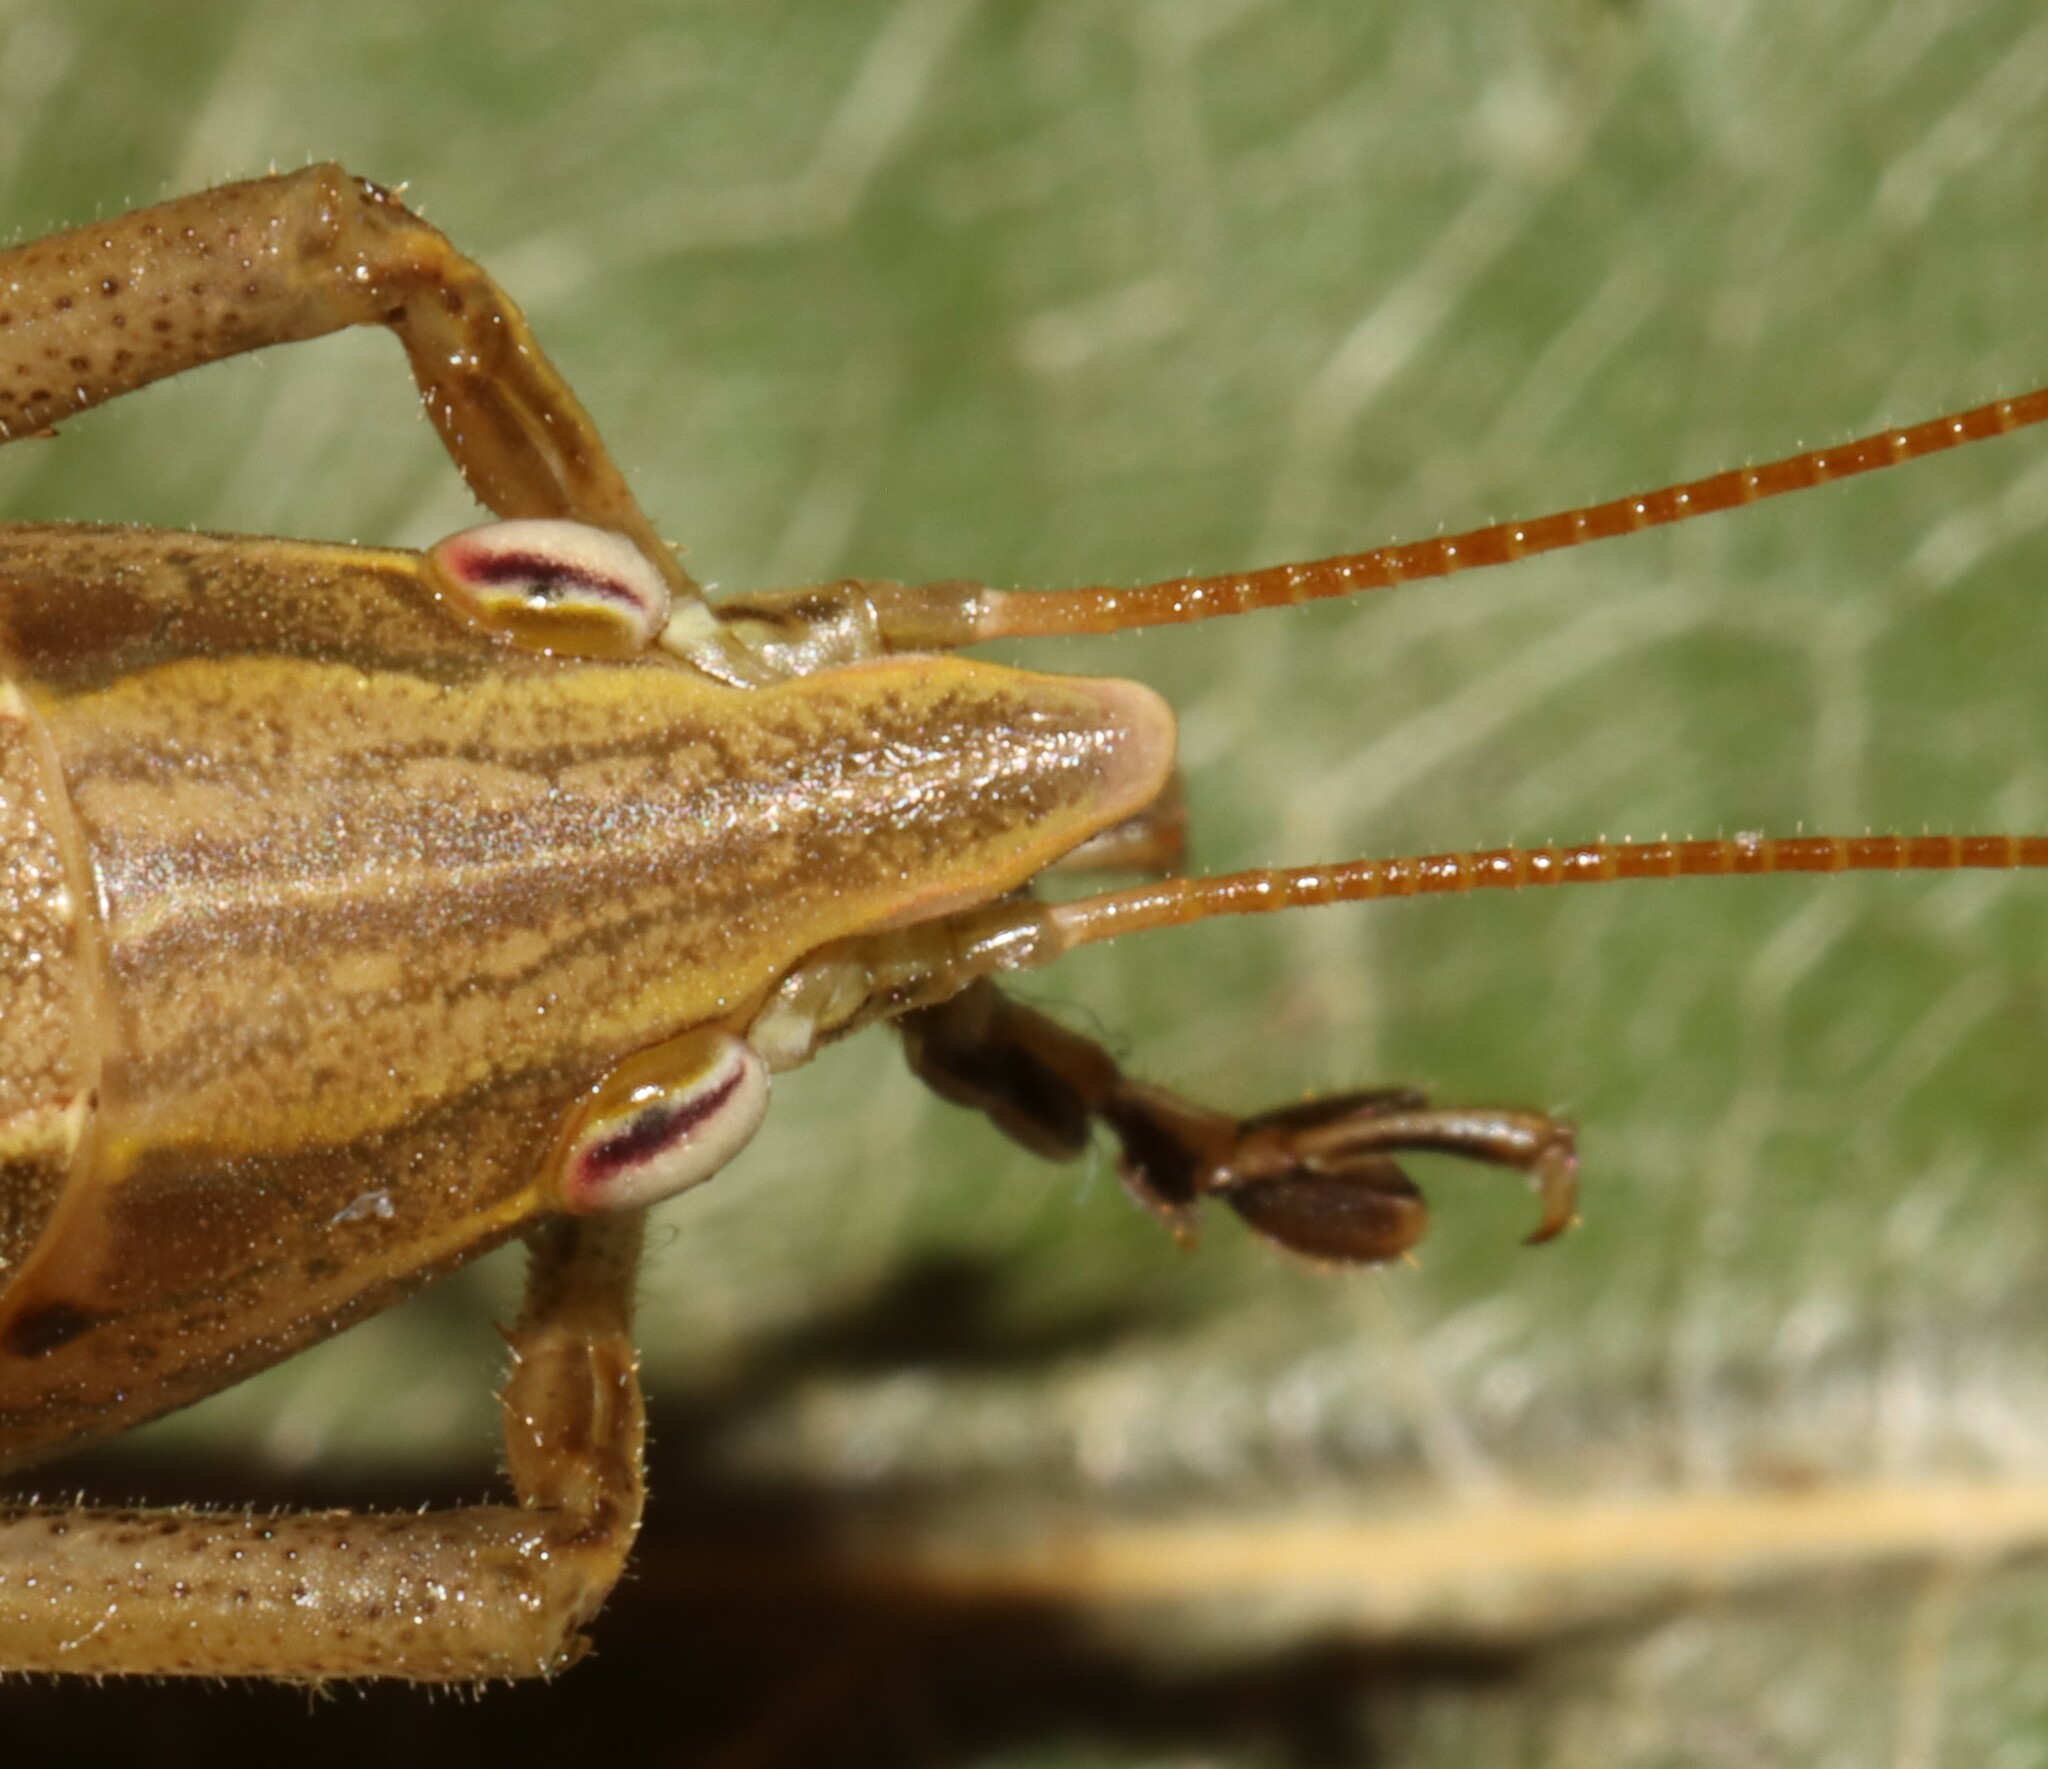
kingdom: Animalia
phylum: Arthropoda
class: Insecta
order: Orthoptera
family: Tettigoniidae
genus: Neoconocephalus
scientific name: Neoconocephalus palustris
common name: Marsh conehead
